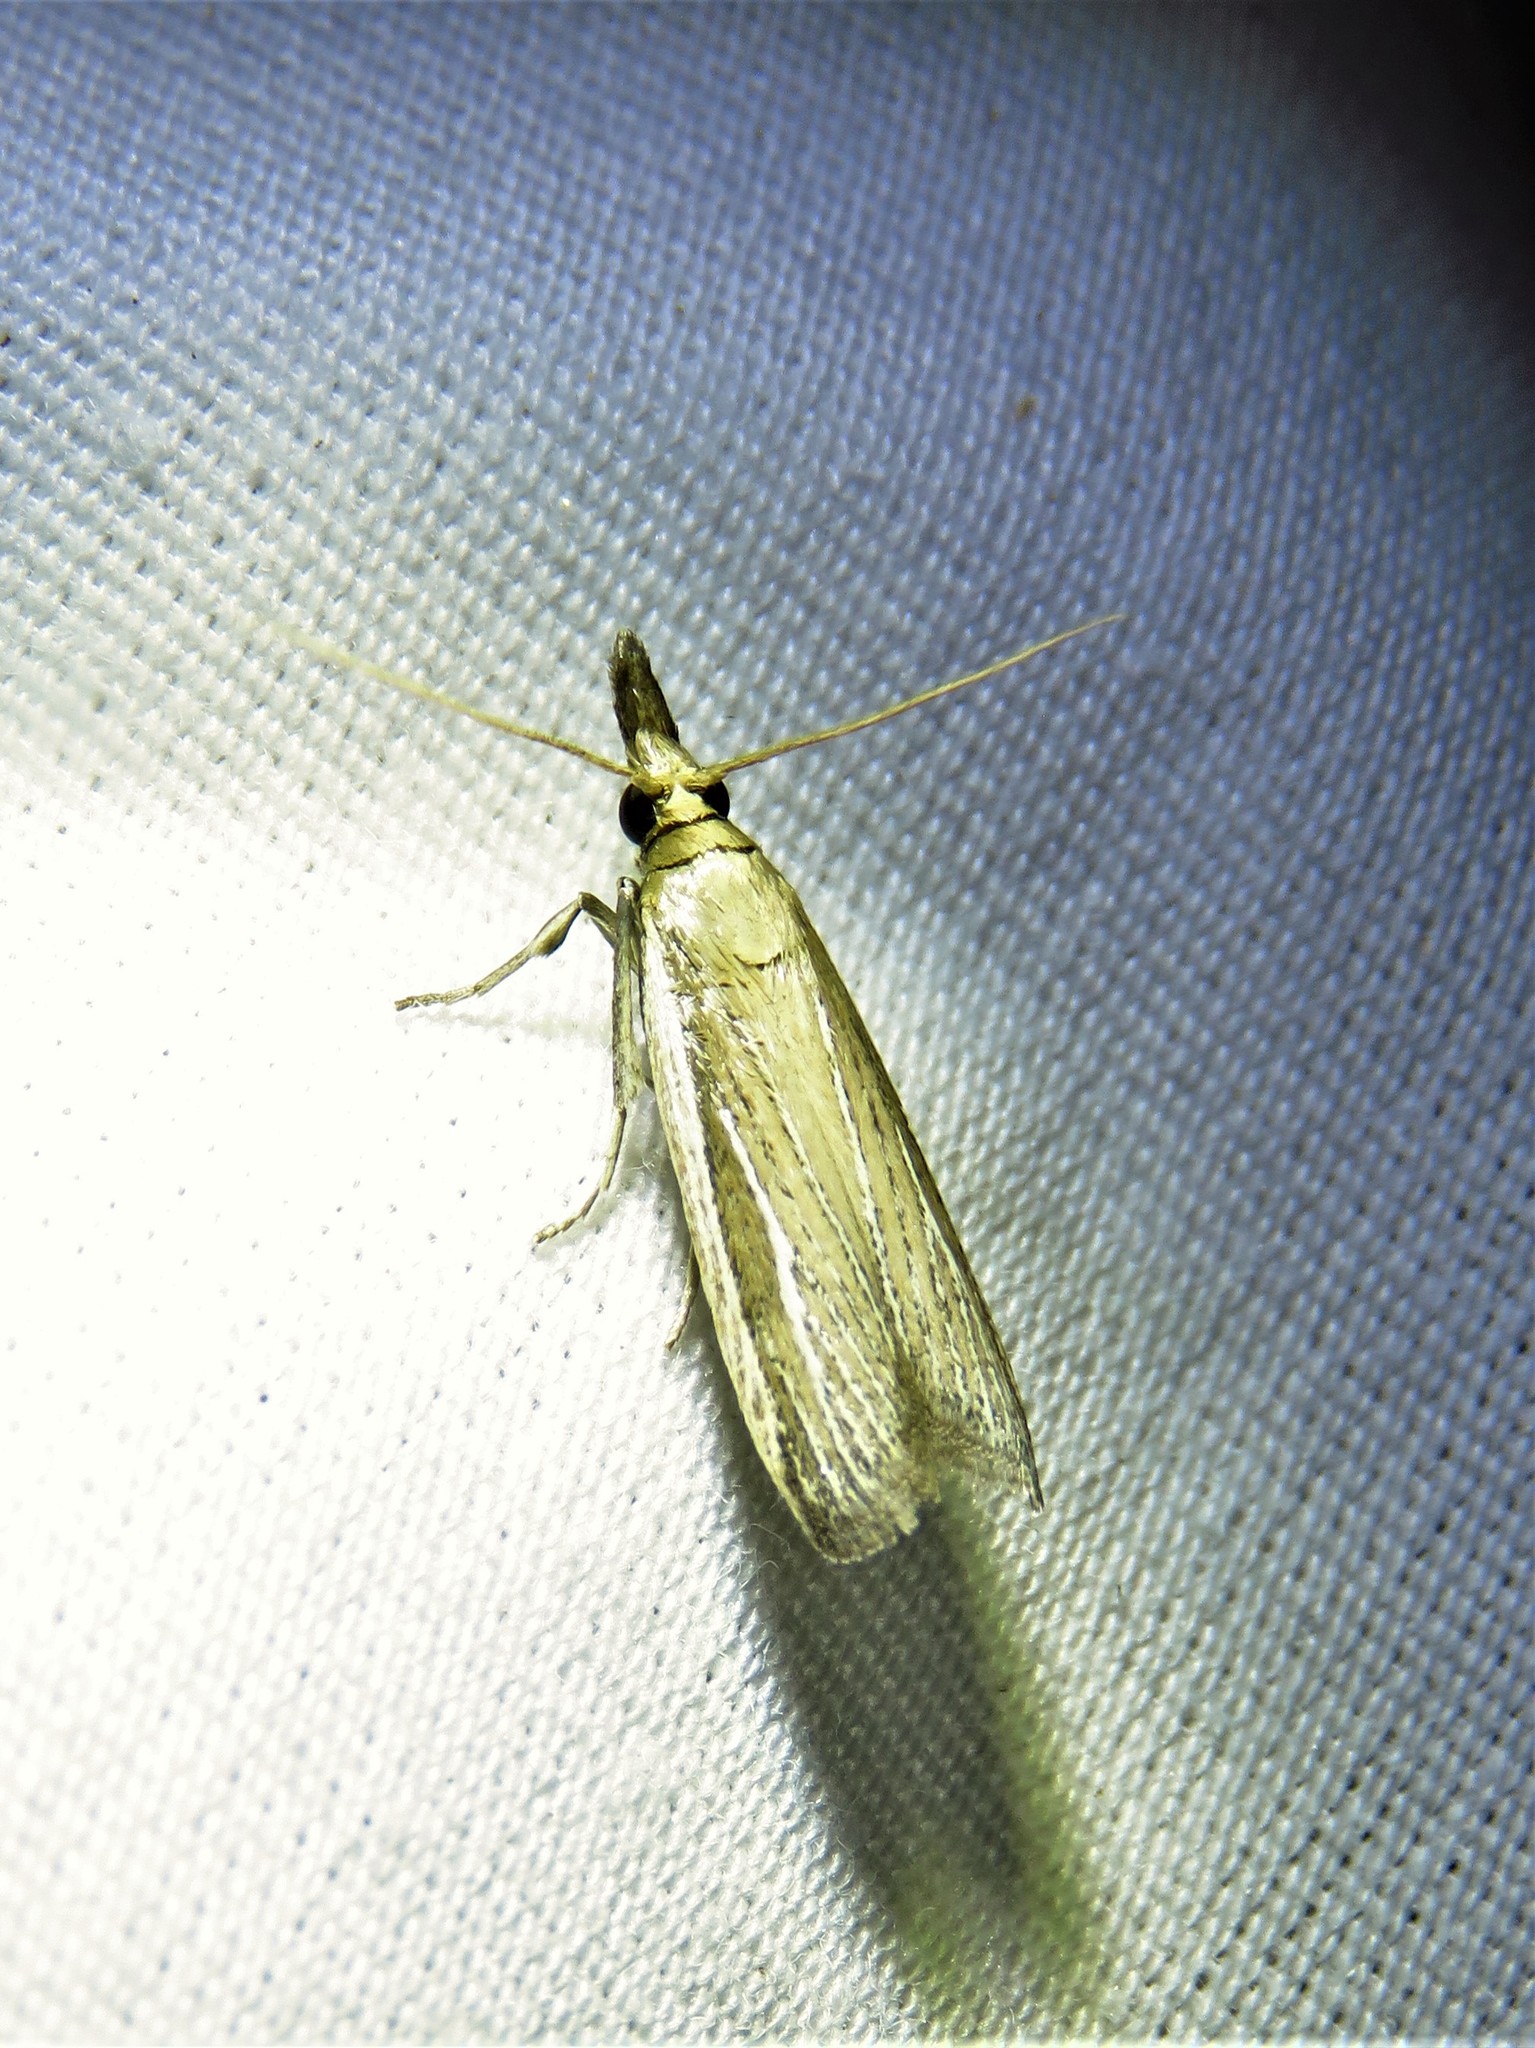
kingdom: Animalia
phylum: Arthropoda
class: Insecta
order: Lepidoptera
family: Pyralidae
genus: Peoria
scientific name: Peoria tetradella
